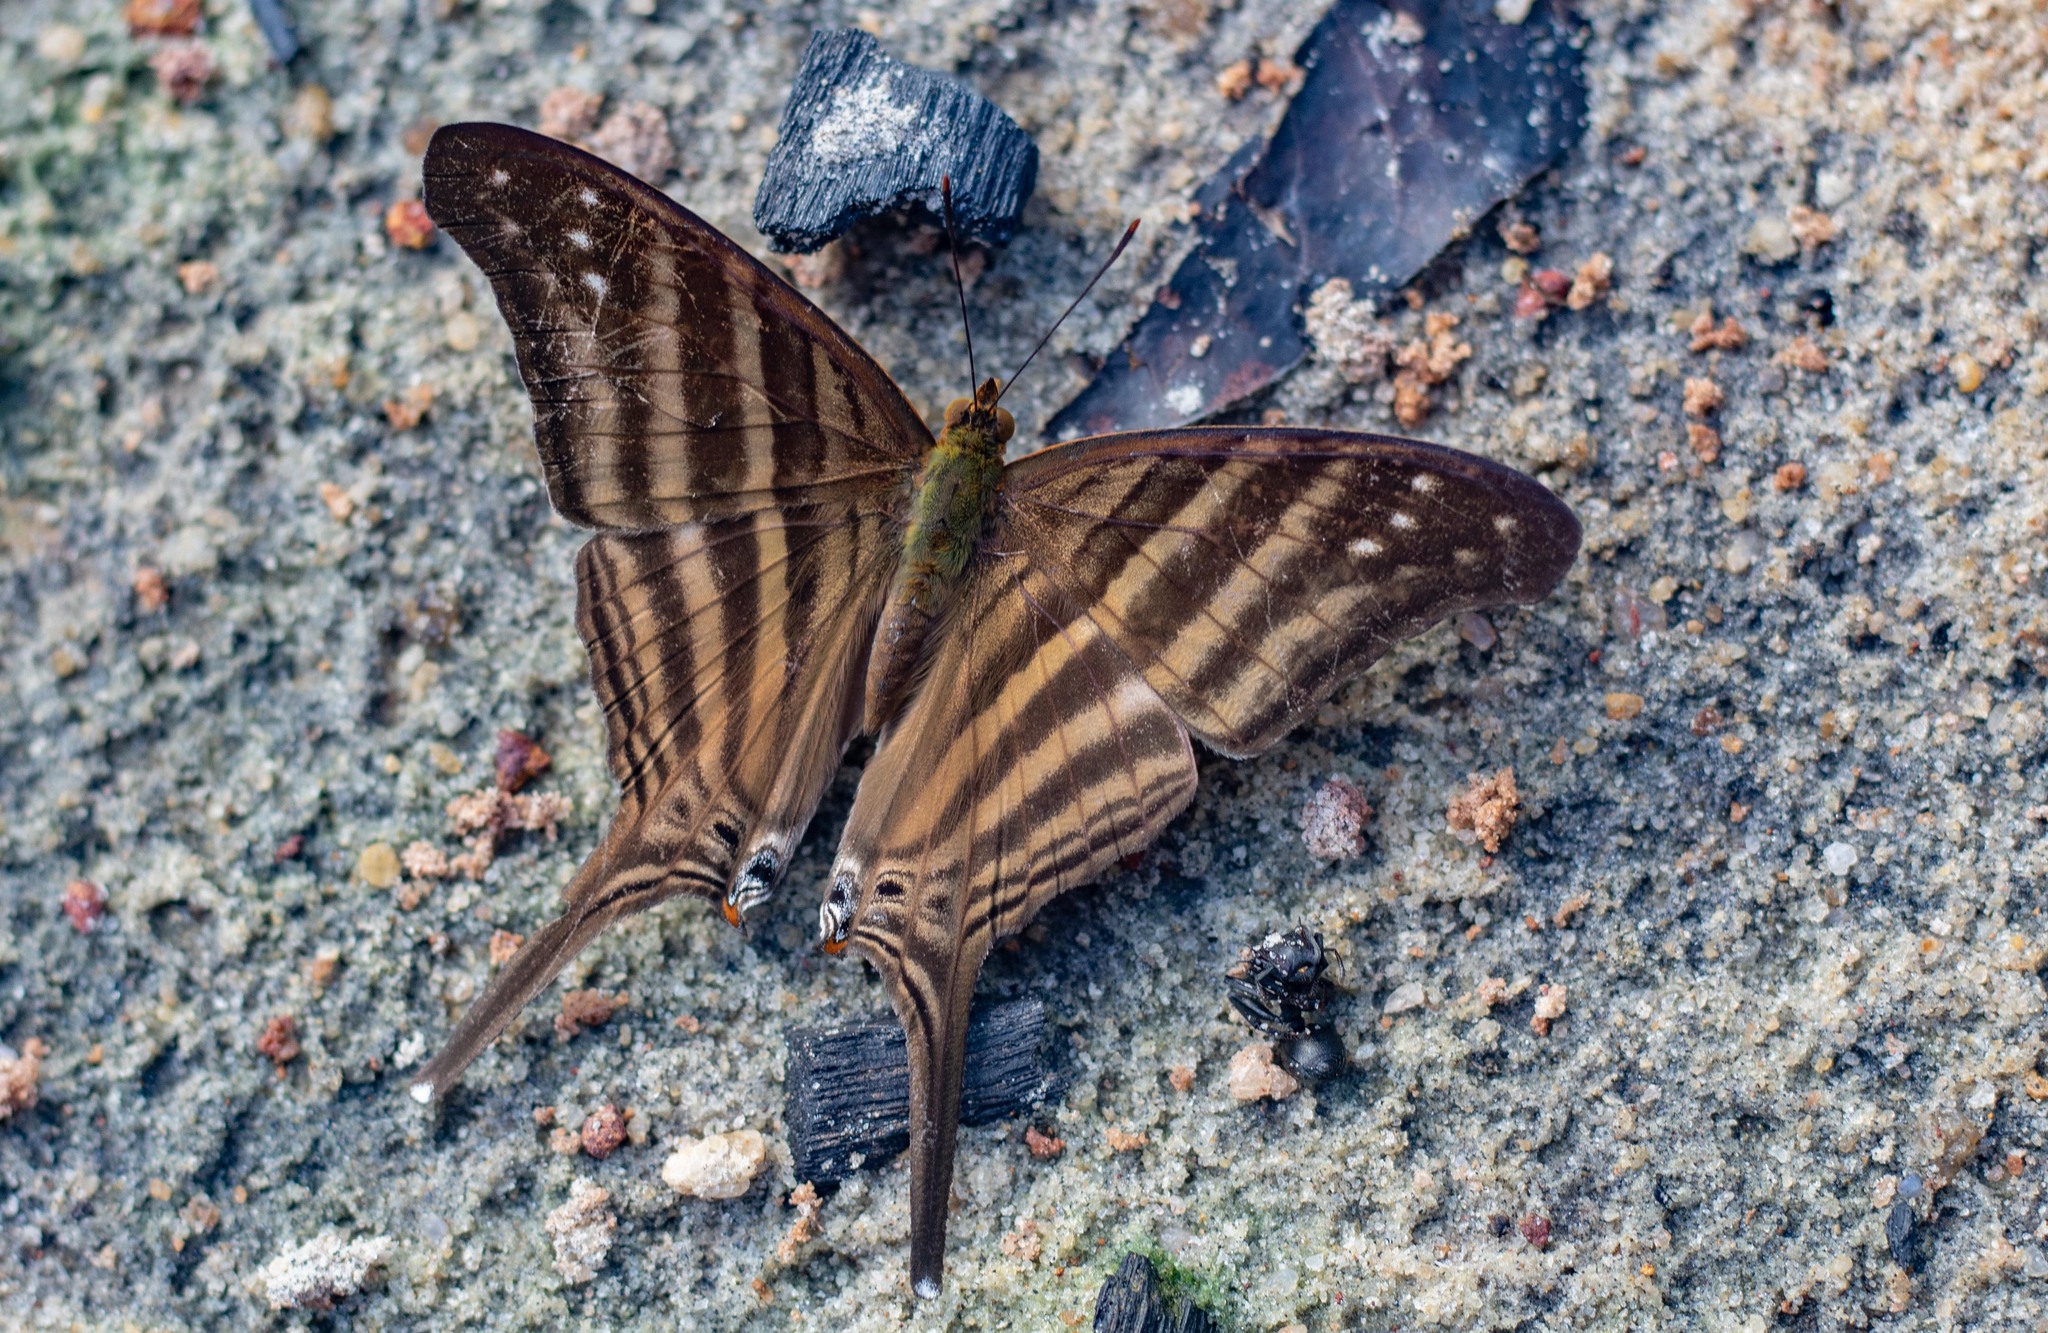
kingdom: Animalia
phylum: Arthropoda
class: Insecta
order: Lepidoptera
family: Nymphalidae
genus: Marpesia
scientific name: Marpesia chiron
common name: Many-banded daggerwing
